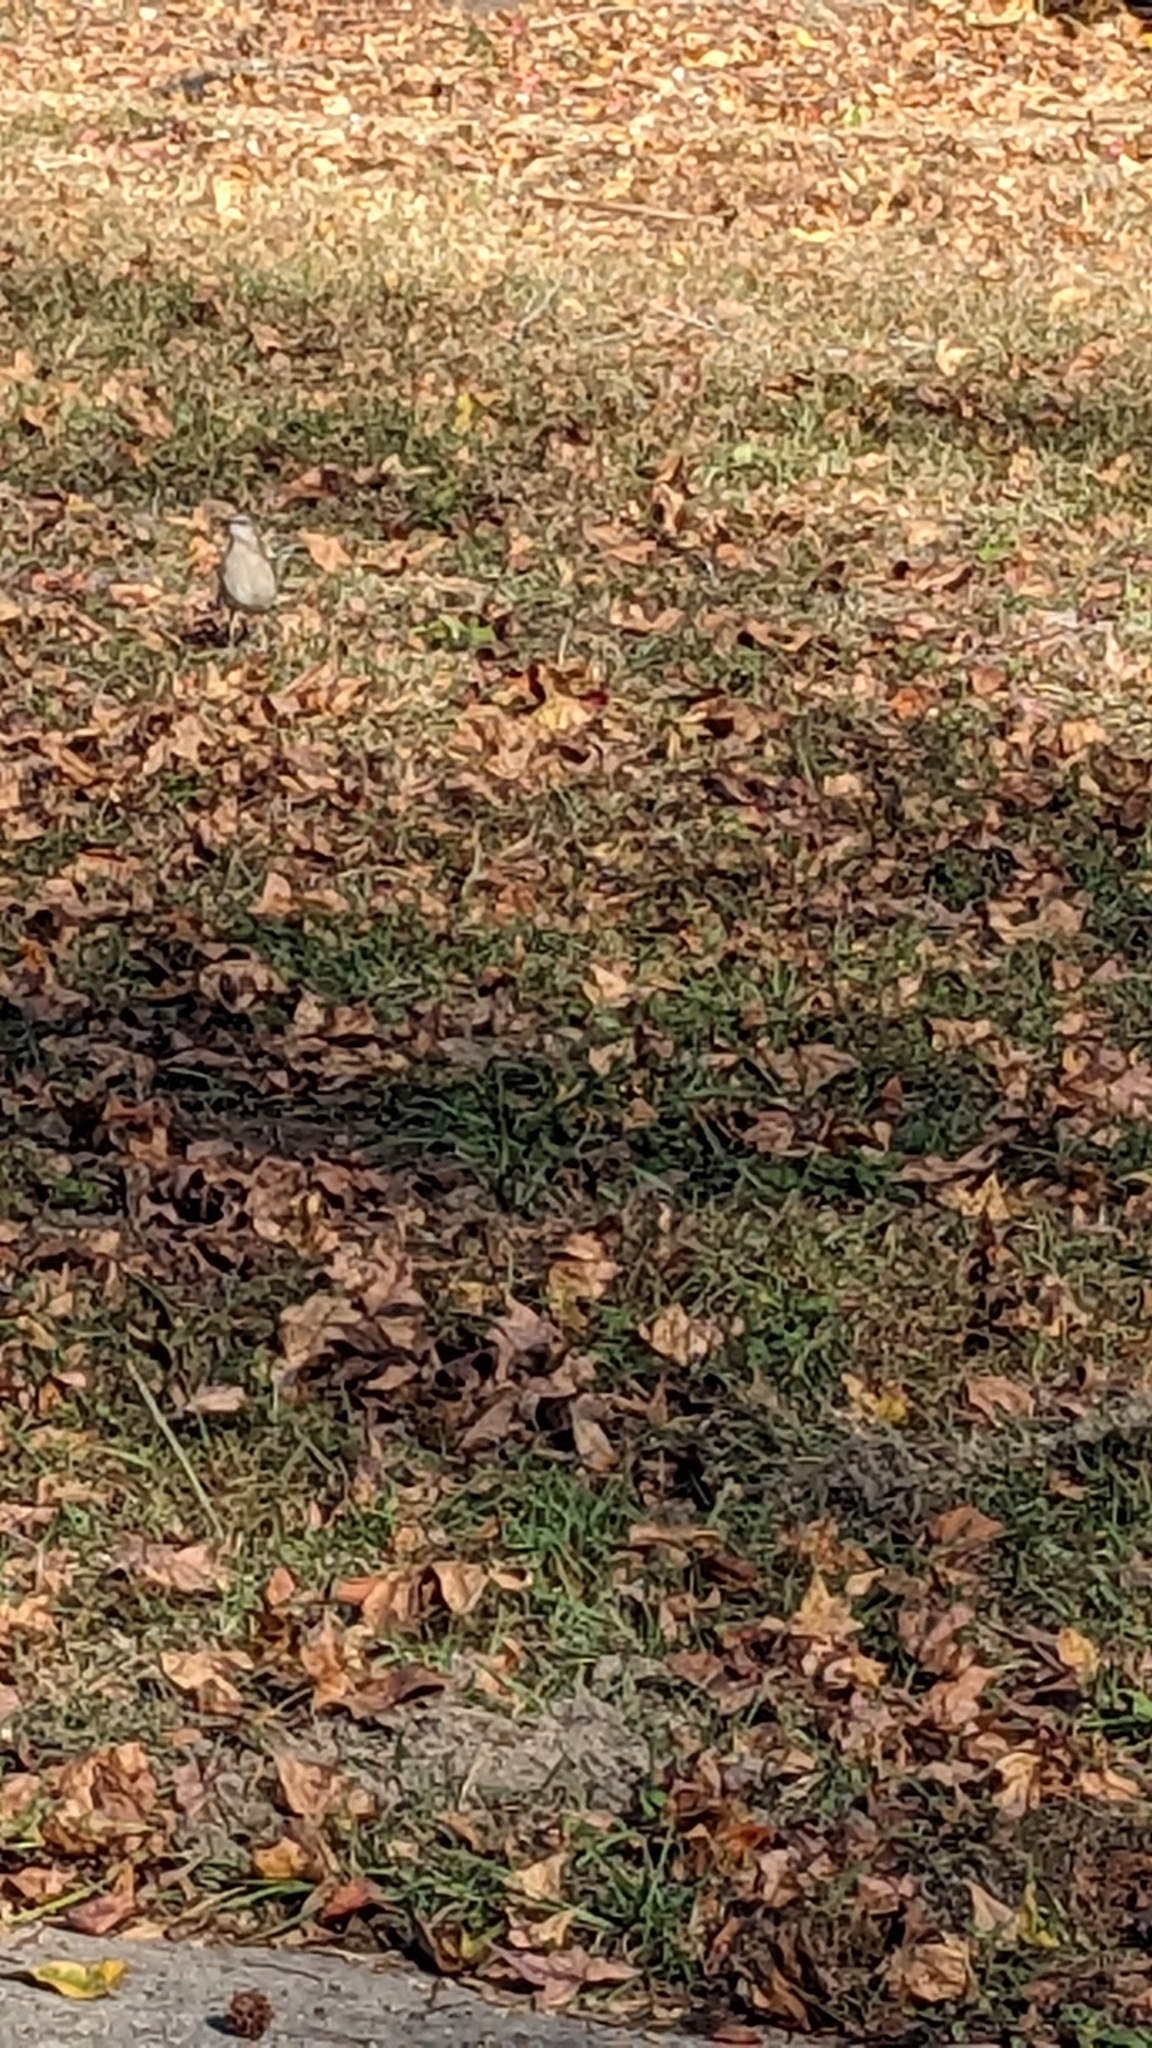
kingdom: Animalia
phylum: Chordata
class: Aves
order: Passeriformes
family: Mimidae
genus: Mimus
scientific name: Mimus polyglottos
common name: Northern mockingbird
